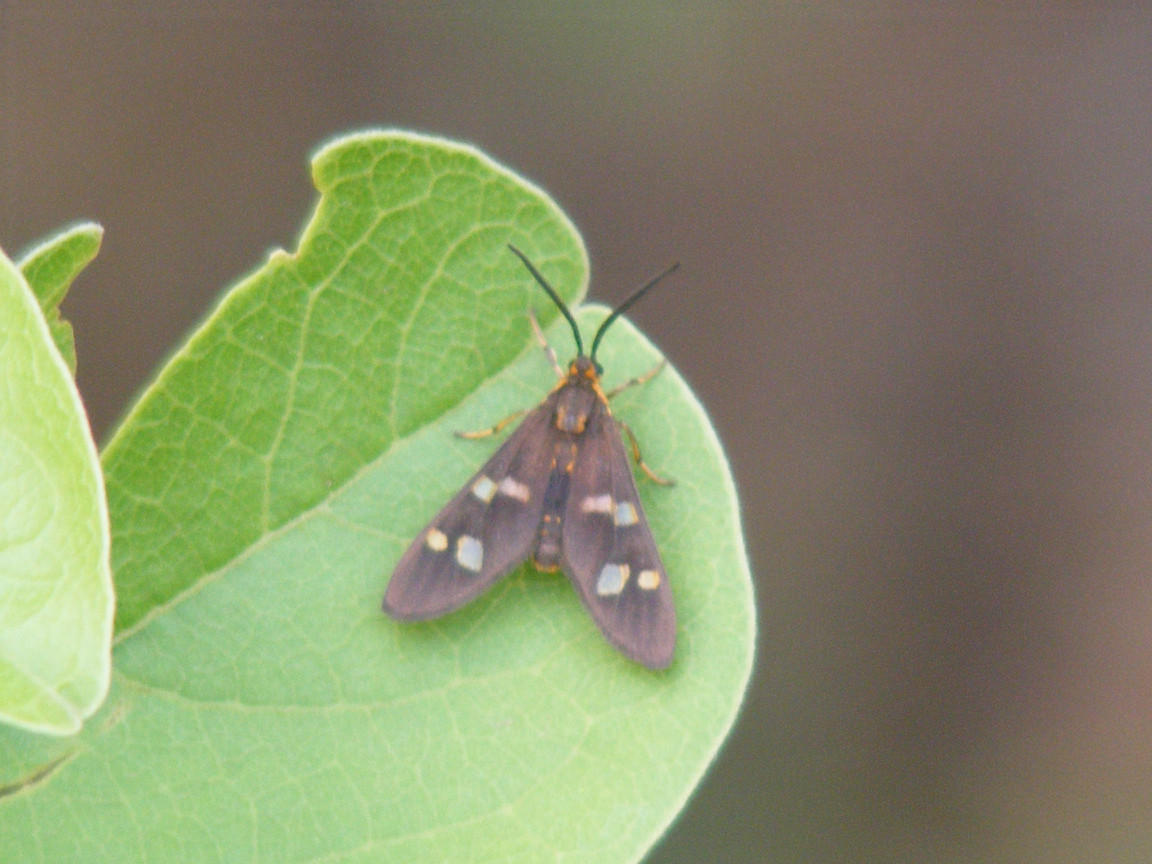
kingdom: Animalia
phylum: Arthropoda
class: Insecta
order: Lepidoptera
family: Erebidae
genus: Pseudonaclia
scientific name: Pseudonaclia puella
